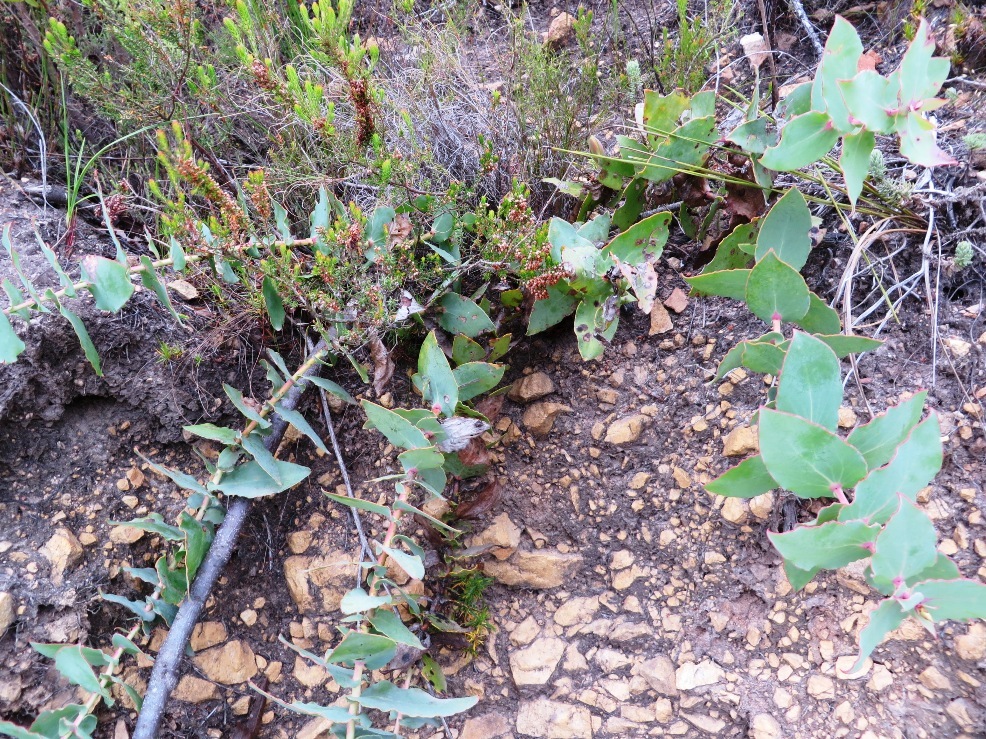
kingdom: Plantae
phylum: Tracheophyta
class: Magnoliopsida
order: Proteales
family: Proteaceae
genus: Protea
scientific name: Protea amplexicaulis
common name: Clasping-leaf sugarbush
